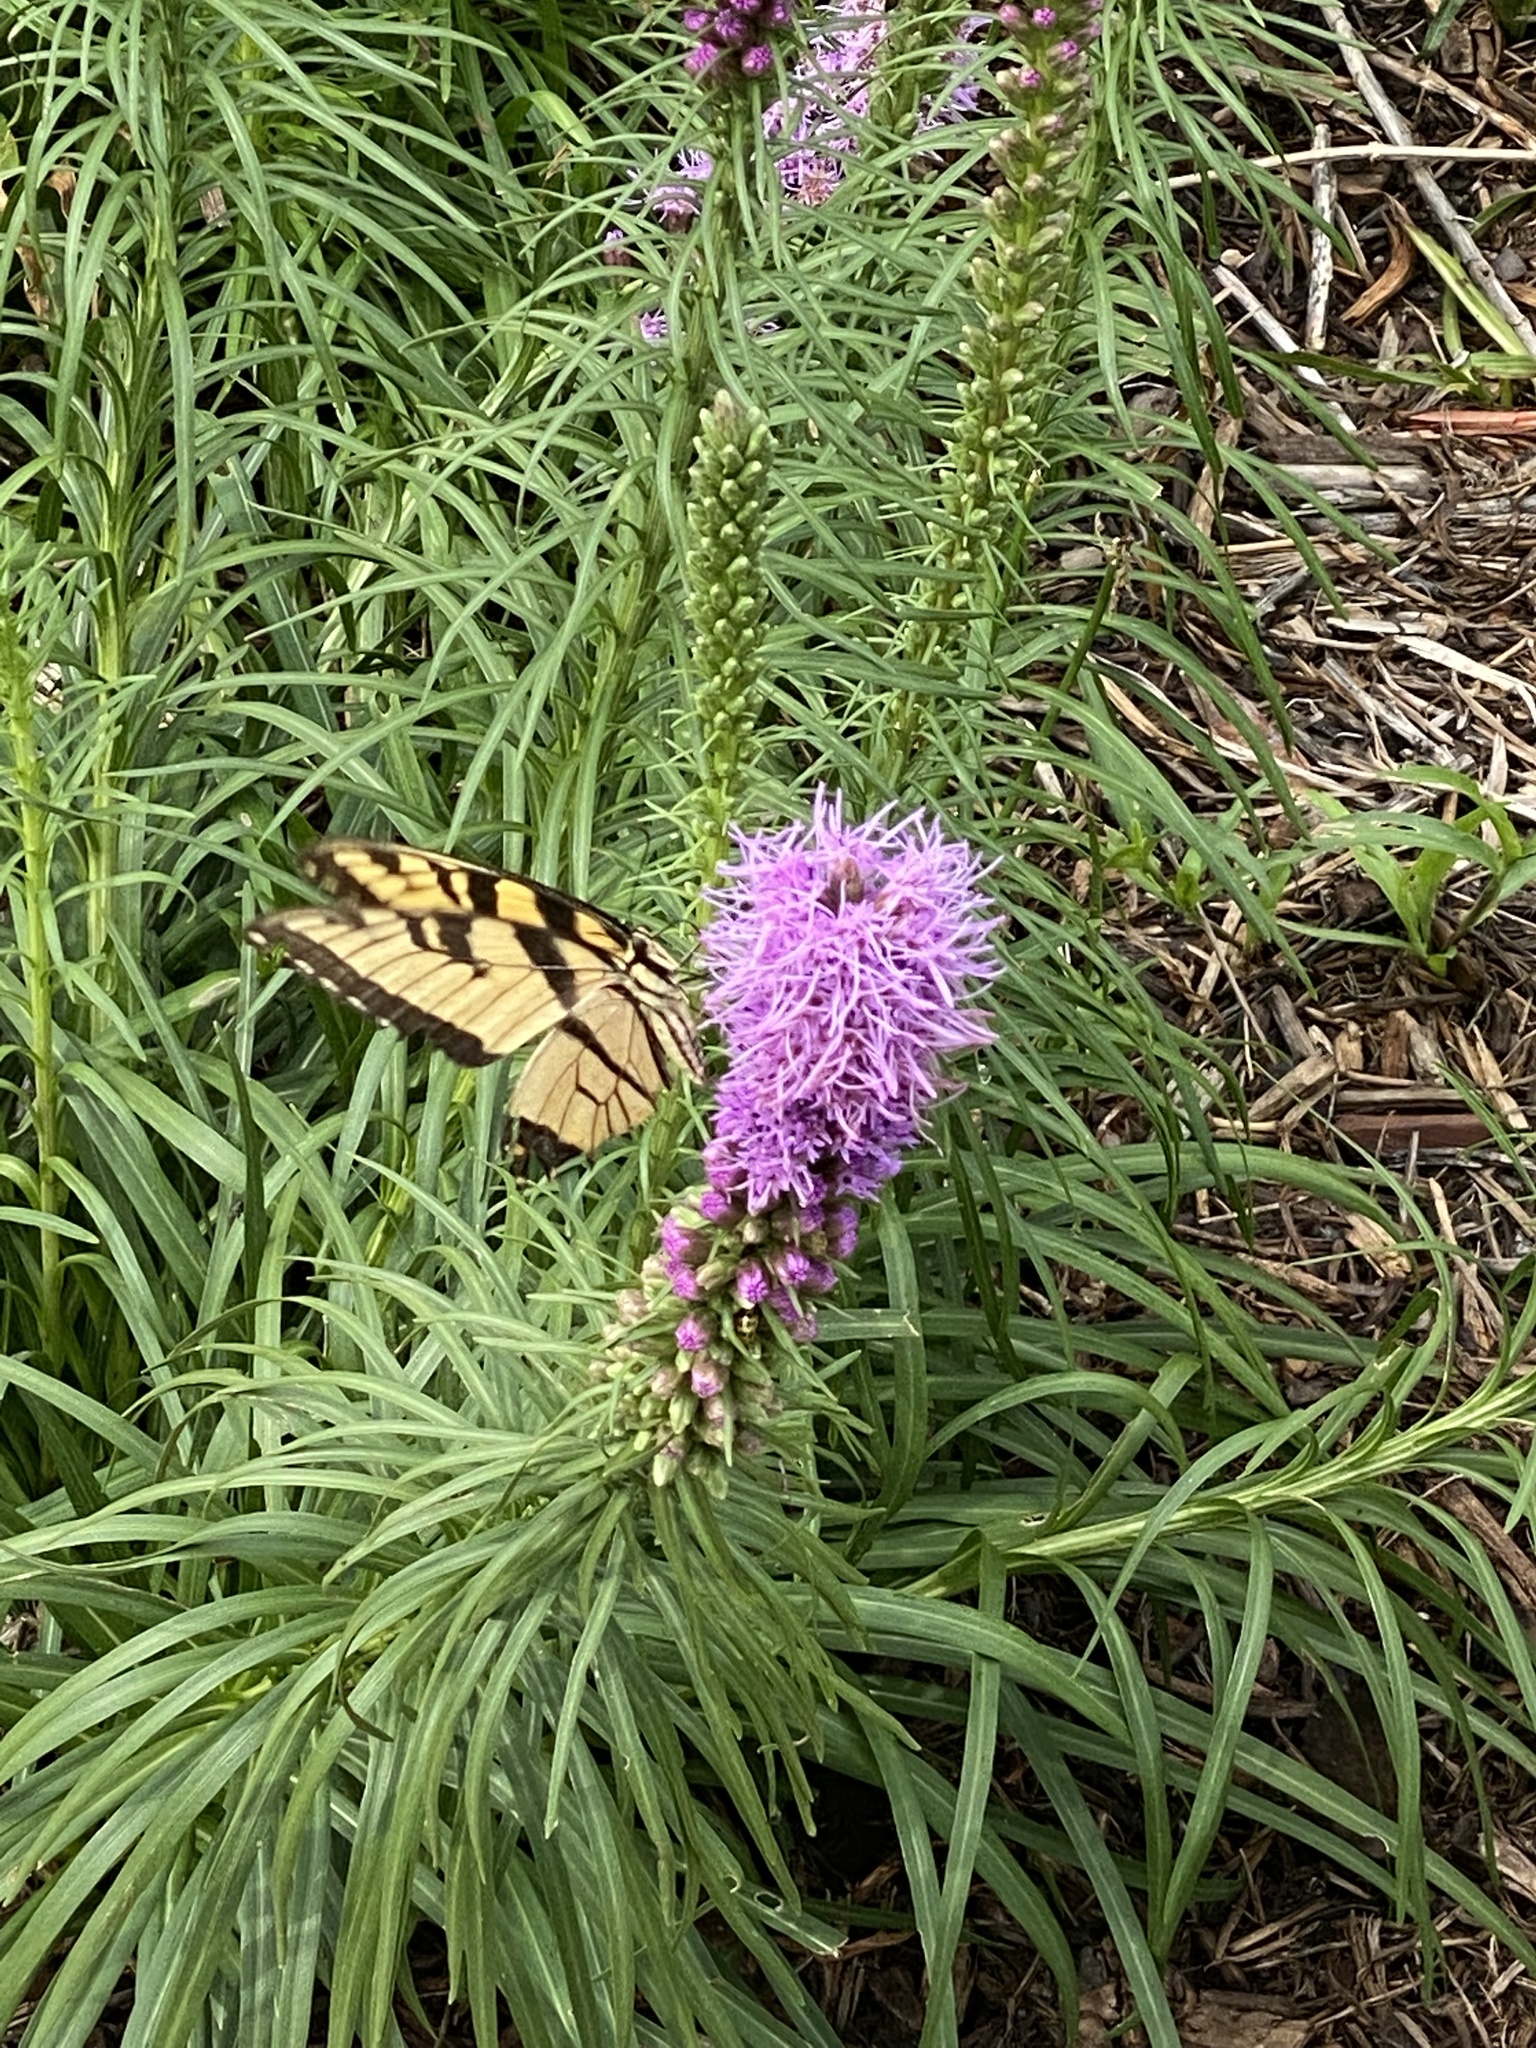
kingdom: Animalia
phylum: Arthropoda
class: Insecta
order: Lepidoptera
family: Papilionidae
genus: Papilio
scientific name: Papilio glaucus
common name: Tiger swallowtail
